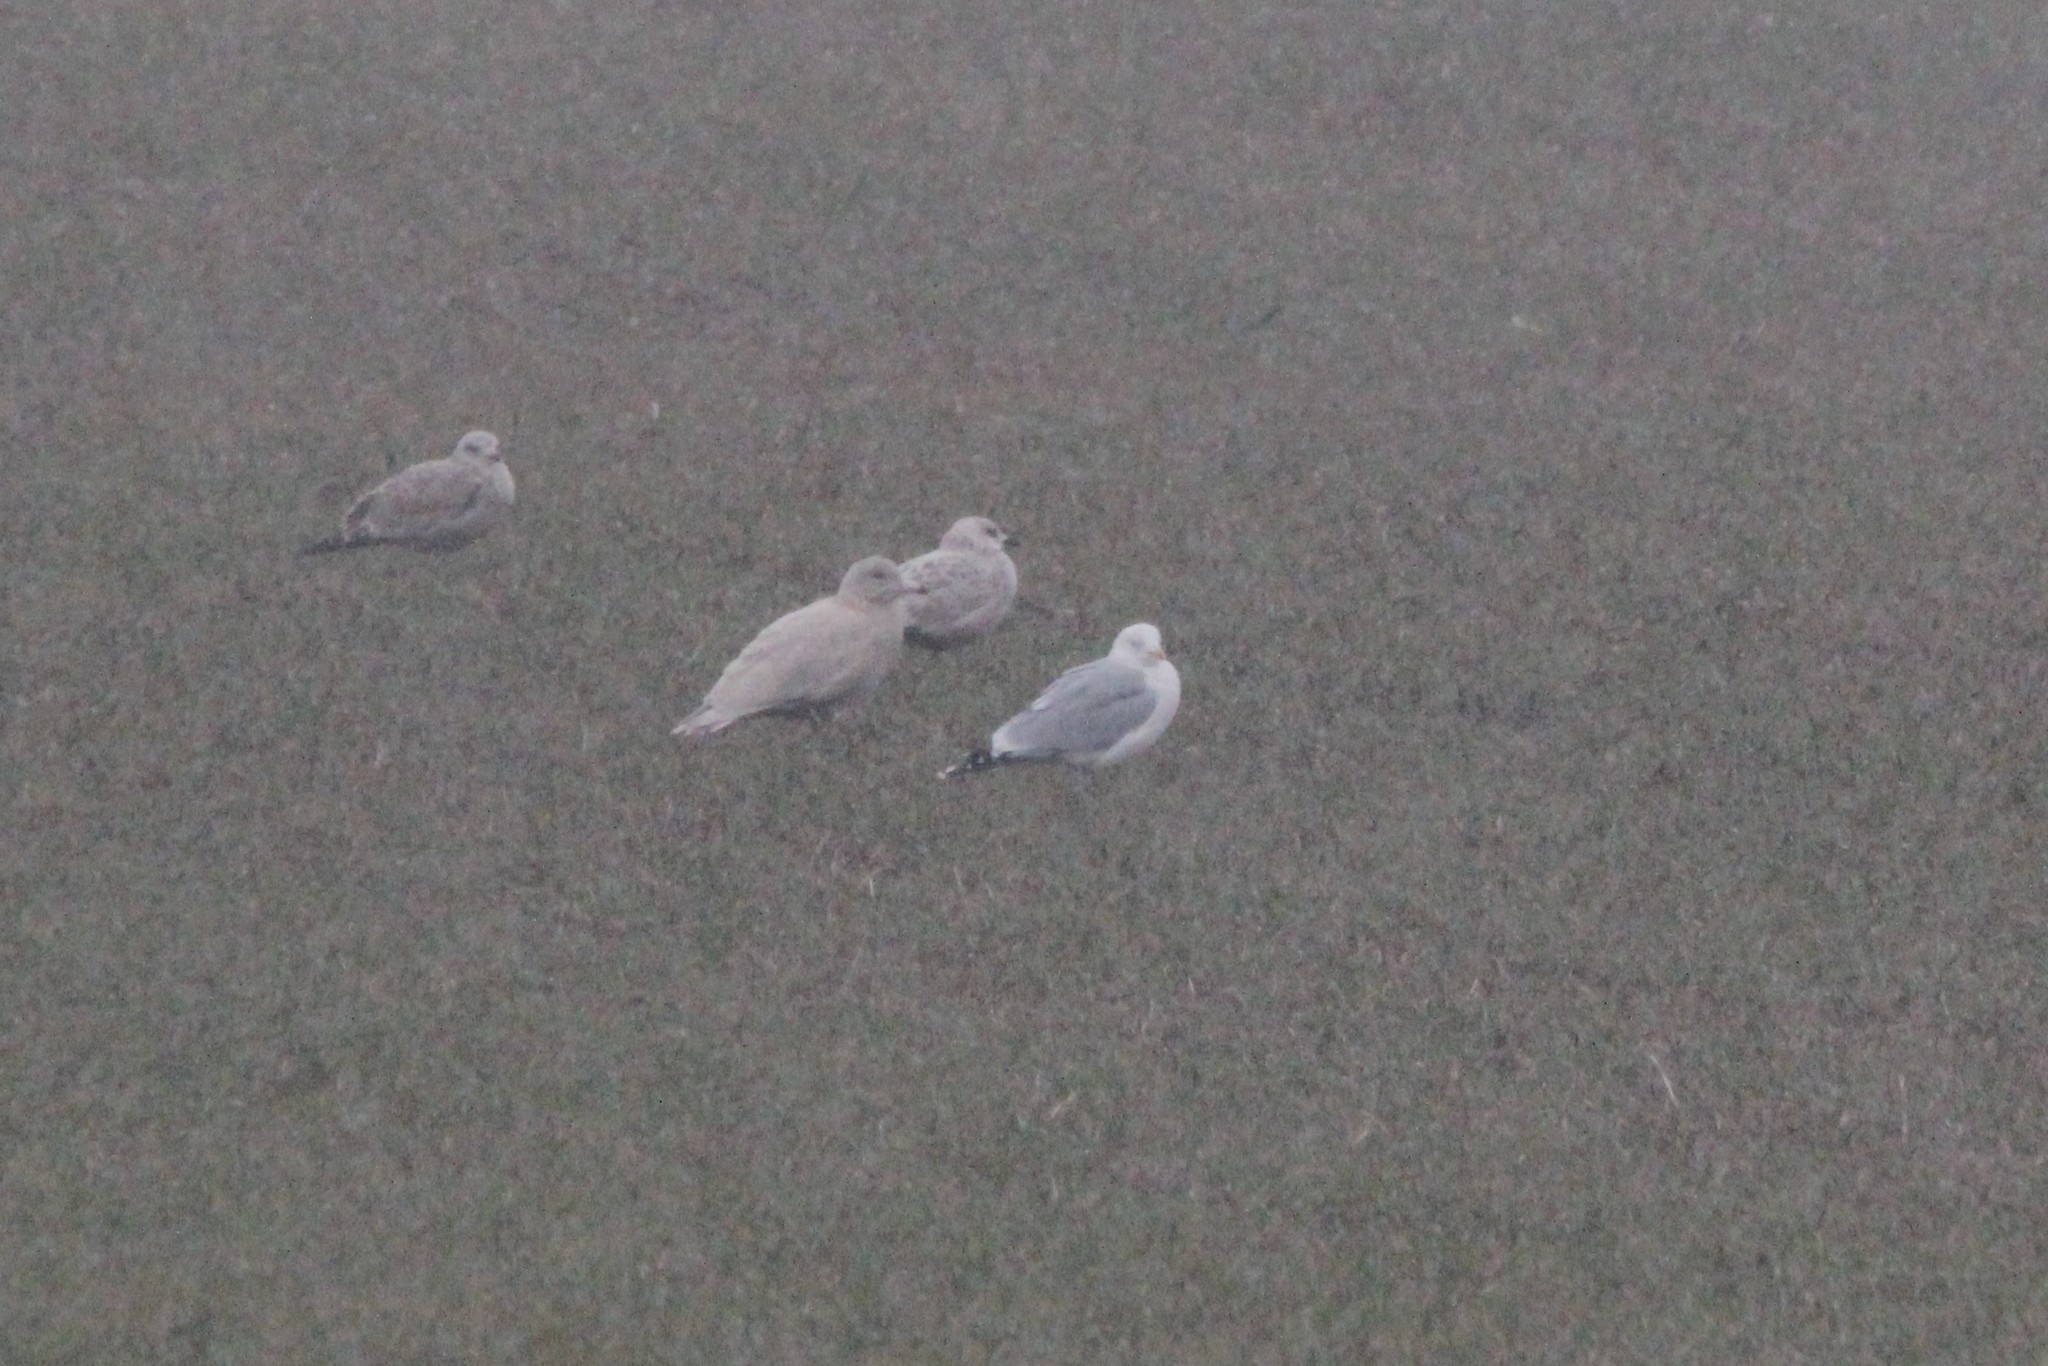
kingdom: Animalia
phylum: Chordata
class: Aves
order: Charadriiformes
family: Laridae
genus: Larus
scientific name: Larus hyperboreus
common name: Glaucous gull
